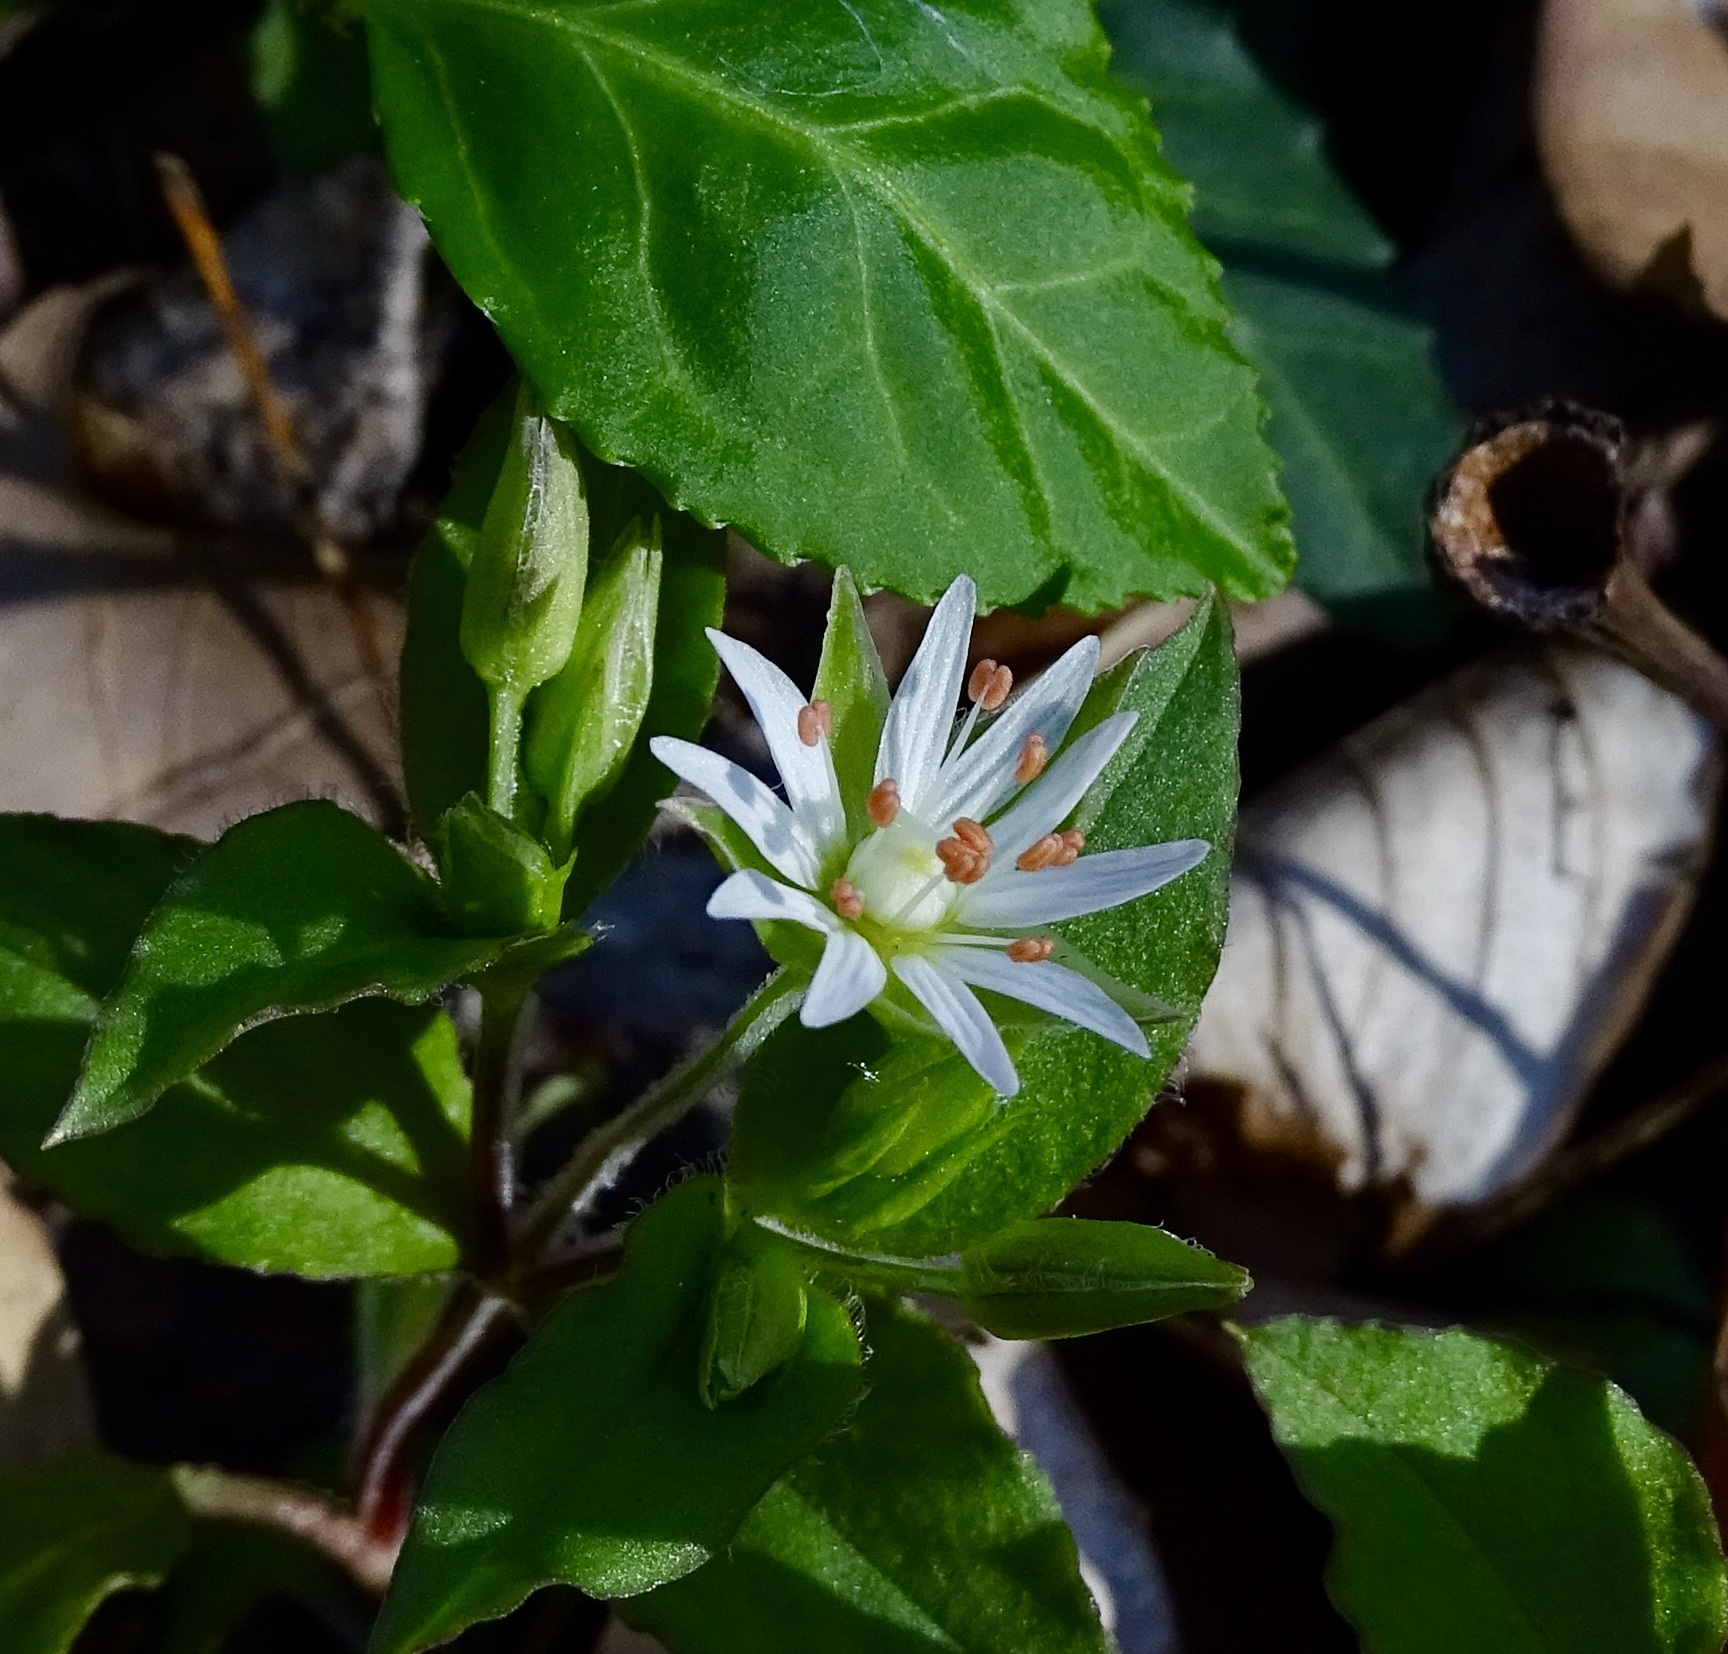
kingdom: Plantae
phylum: Tracheophyta
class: Magnoliopsida
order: Caryophyllales
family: Caryophyllaceae
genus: Stellaria
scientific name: Stellaria corei
